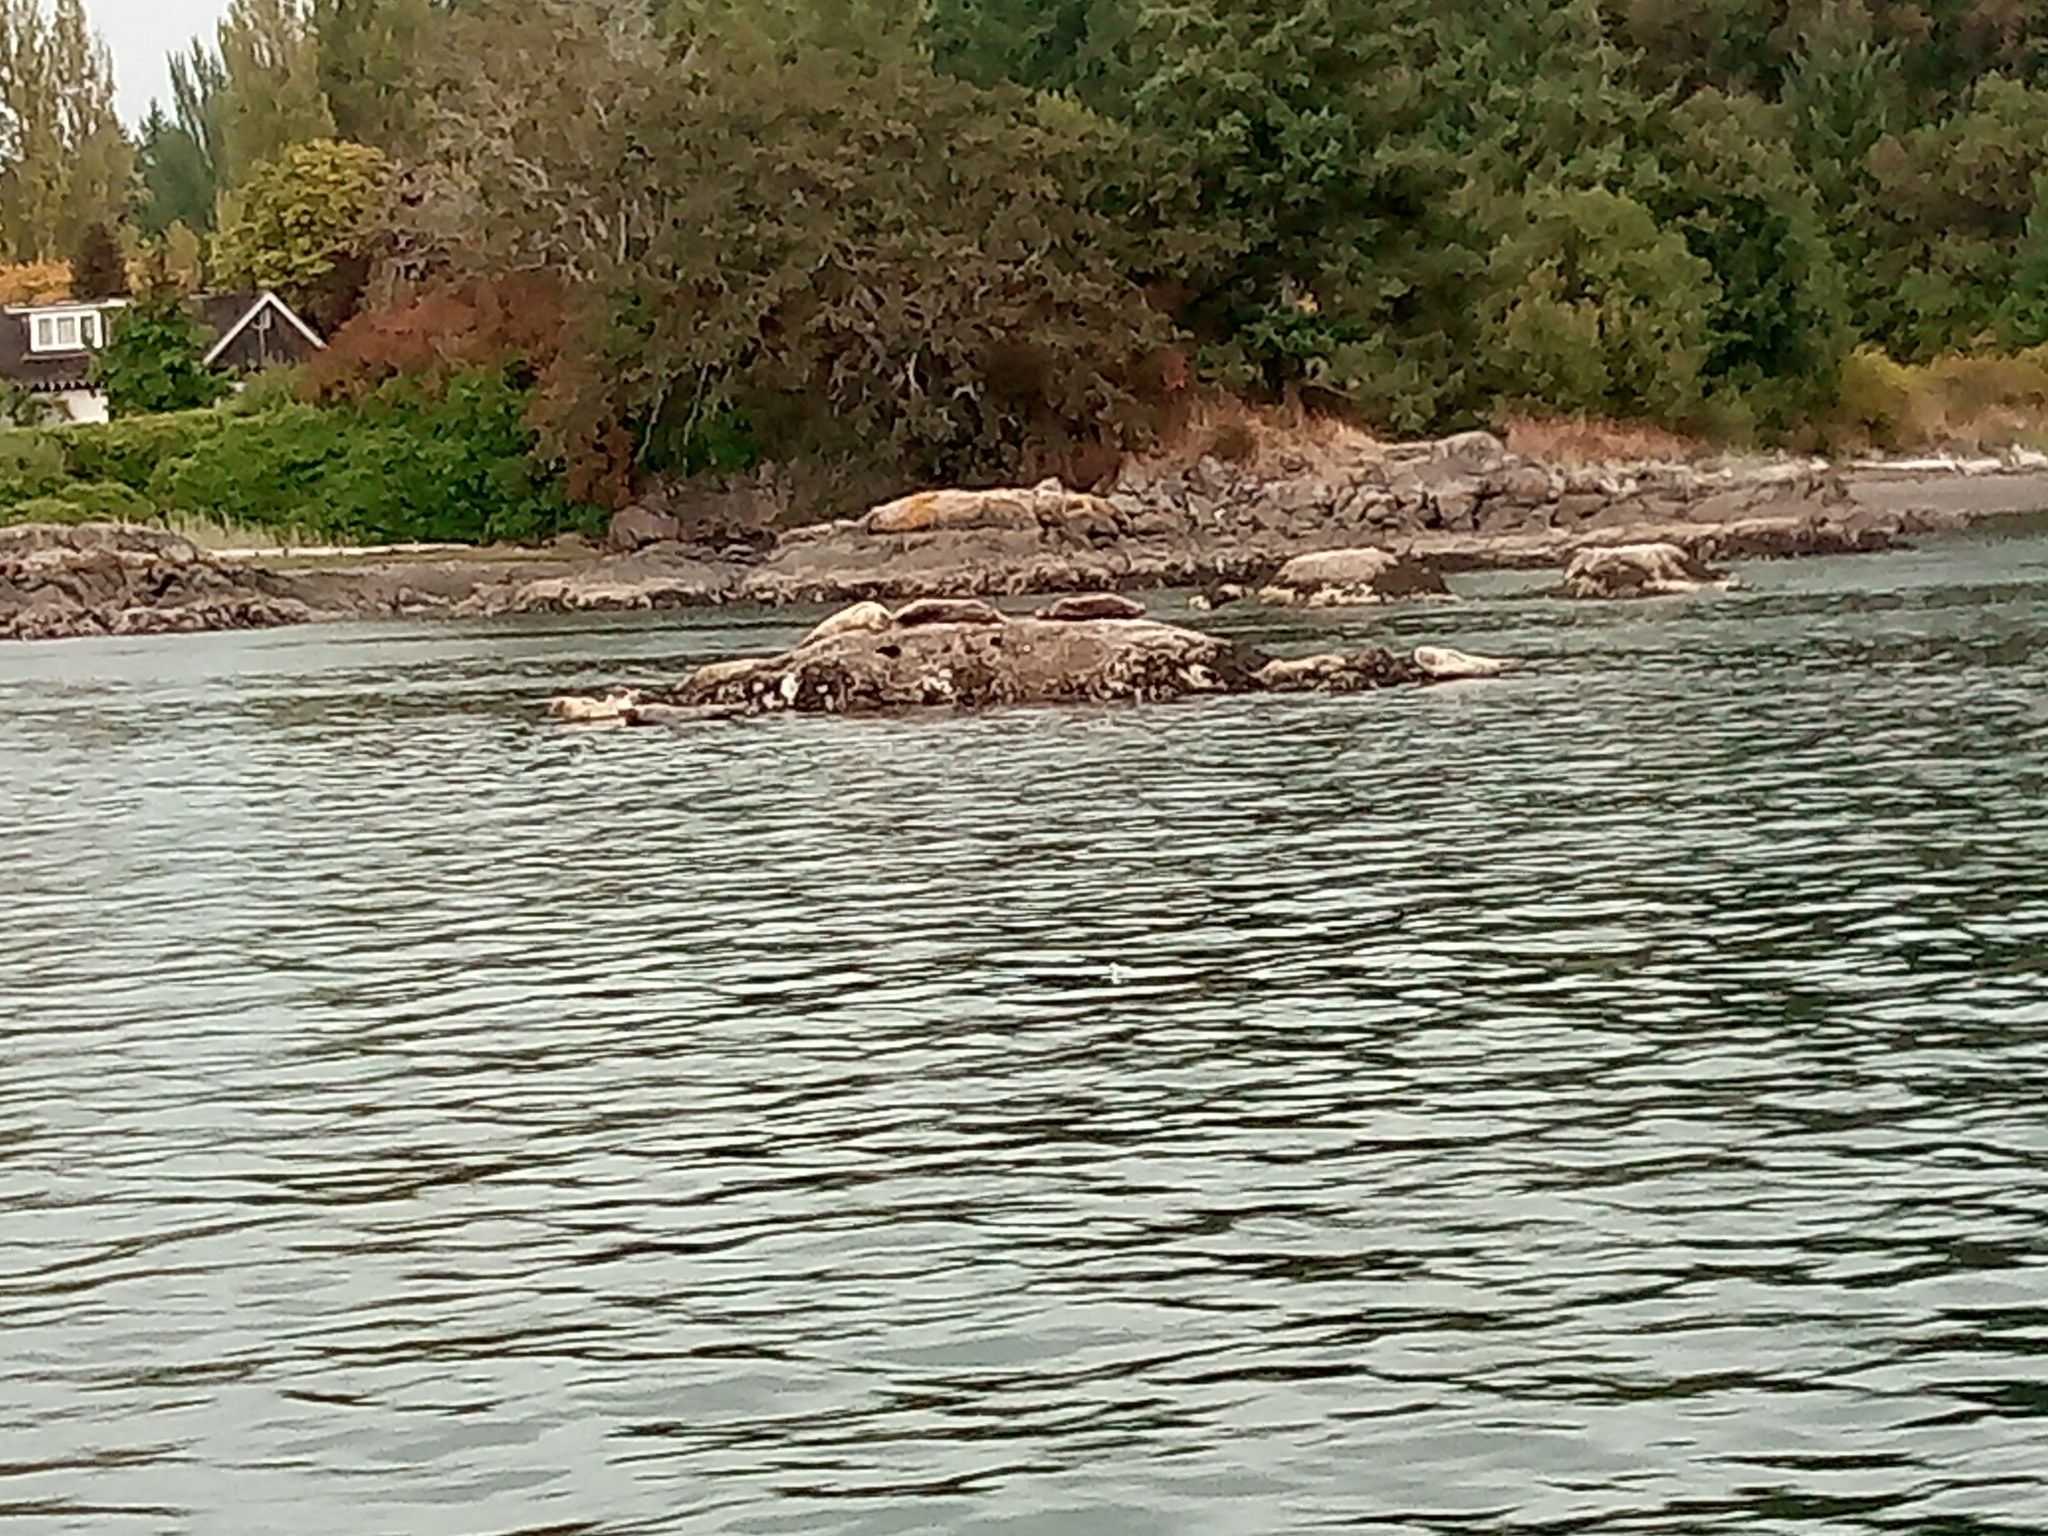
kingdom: Animalia
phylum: Chordata
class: Mammalia
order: Carnivora
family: Phocidae
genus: Phoca
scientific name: Phoca vitulina
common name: Harbor seal
